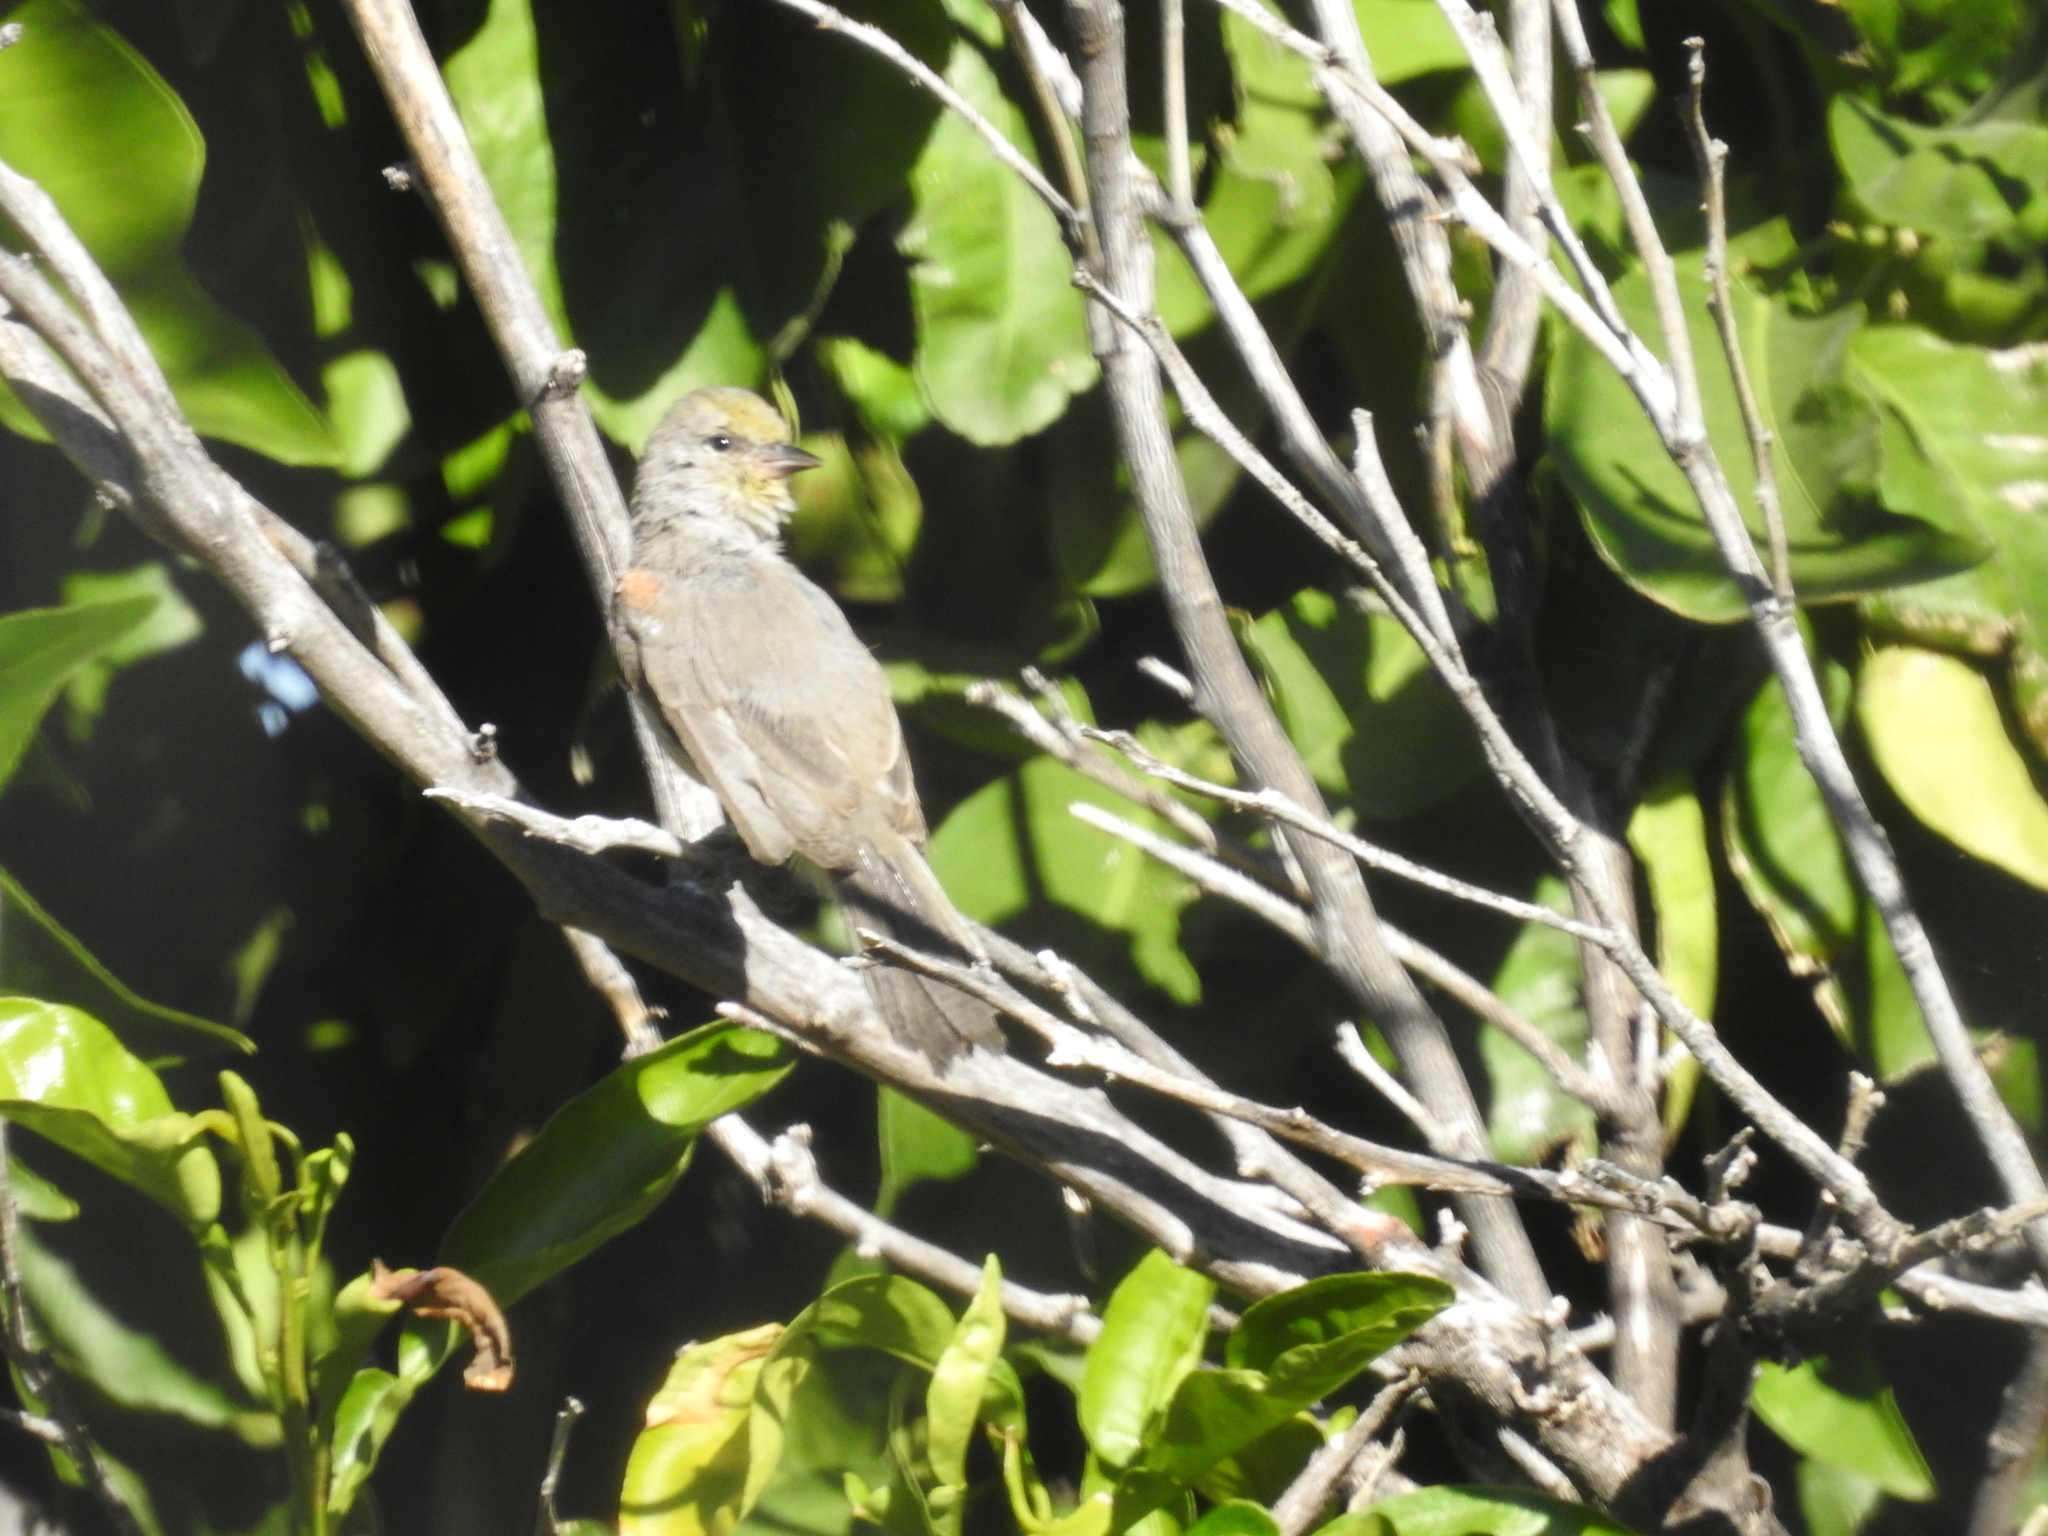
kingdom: Animalia
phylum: Chordata
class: Aves
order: Passeriformes
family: Remizidae
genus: Auriparus
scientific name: Auriparus flaviceps
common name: Verdin
